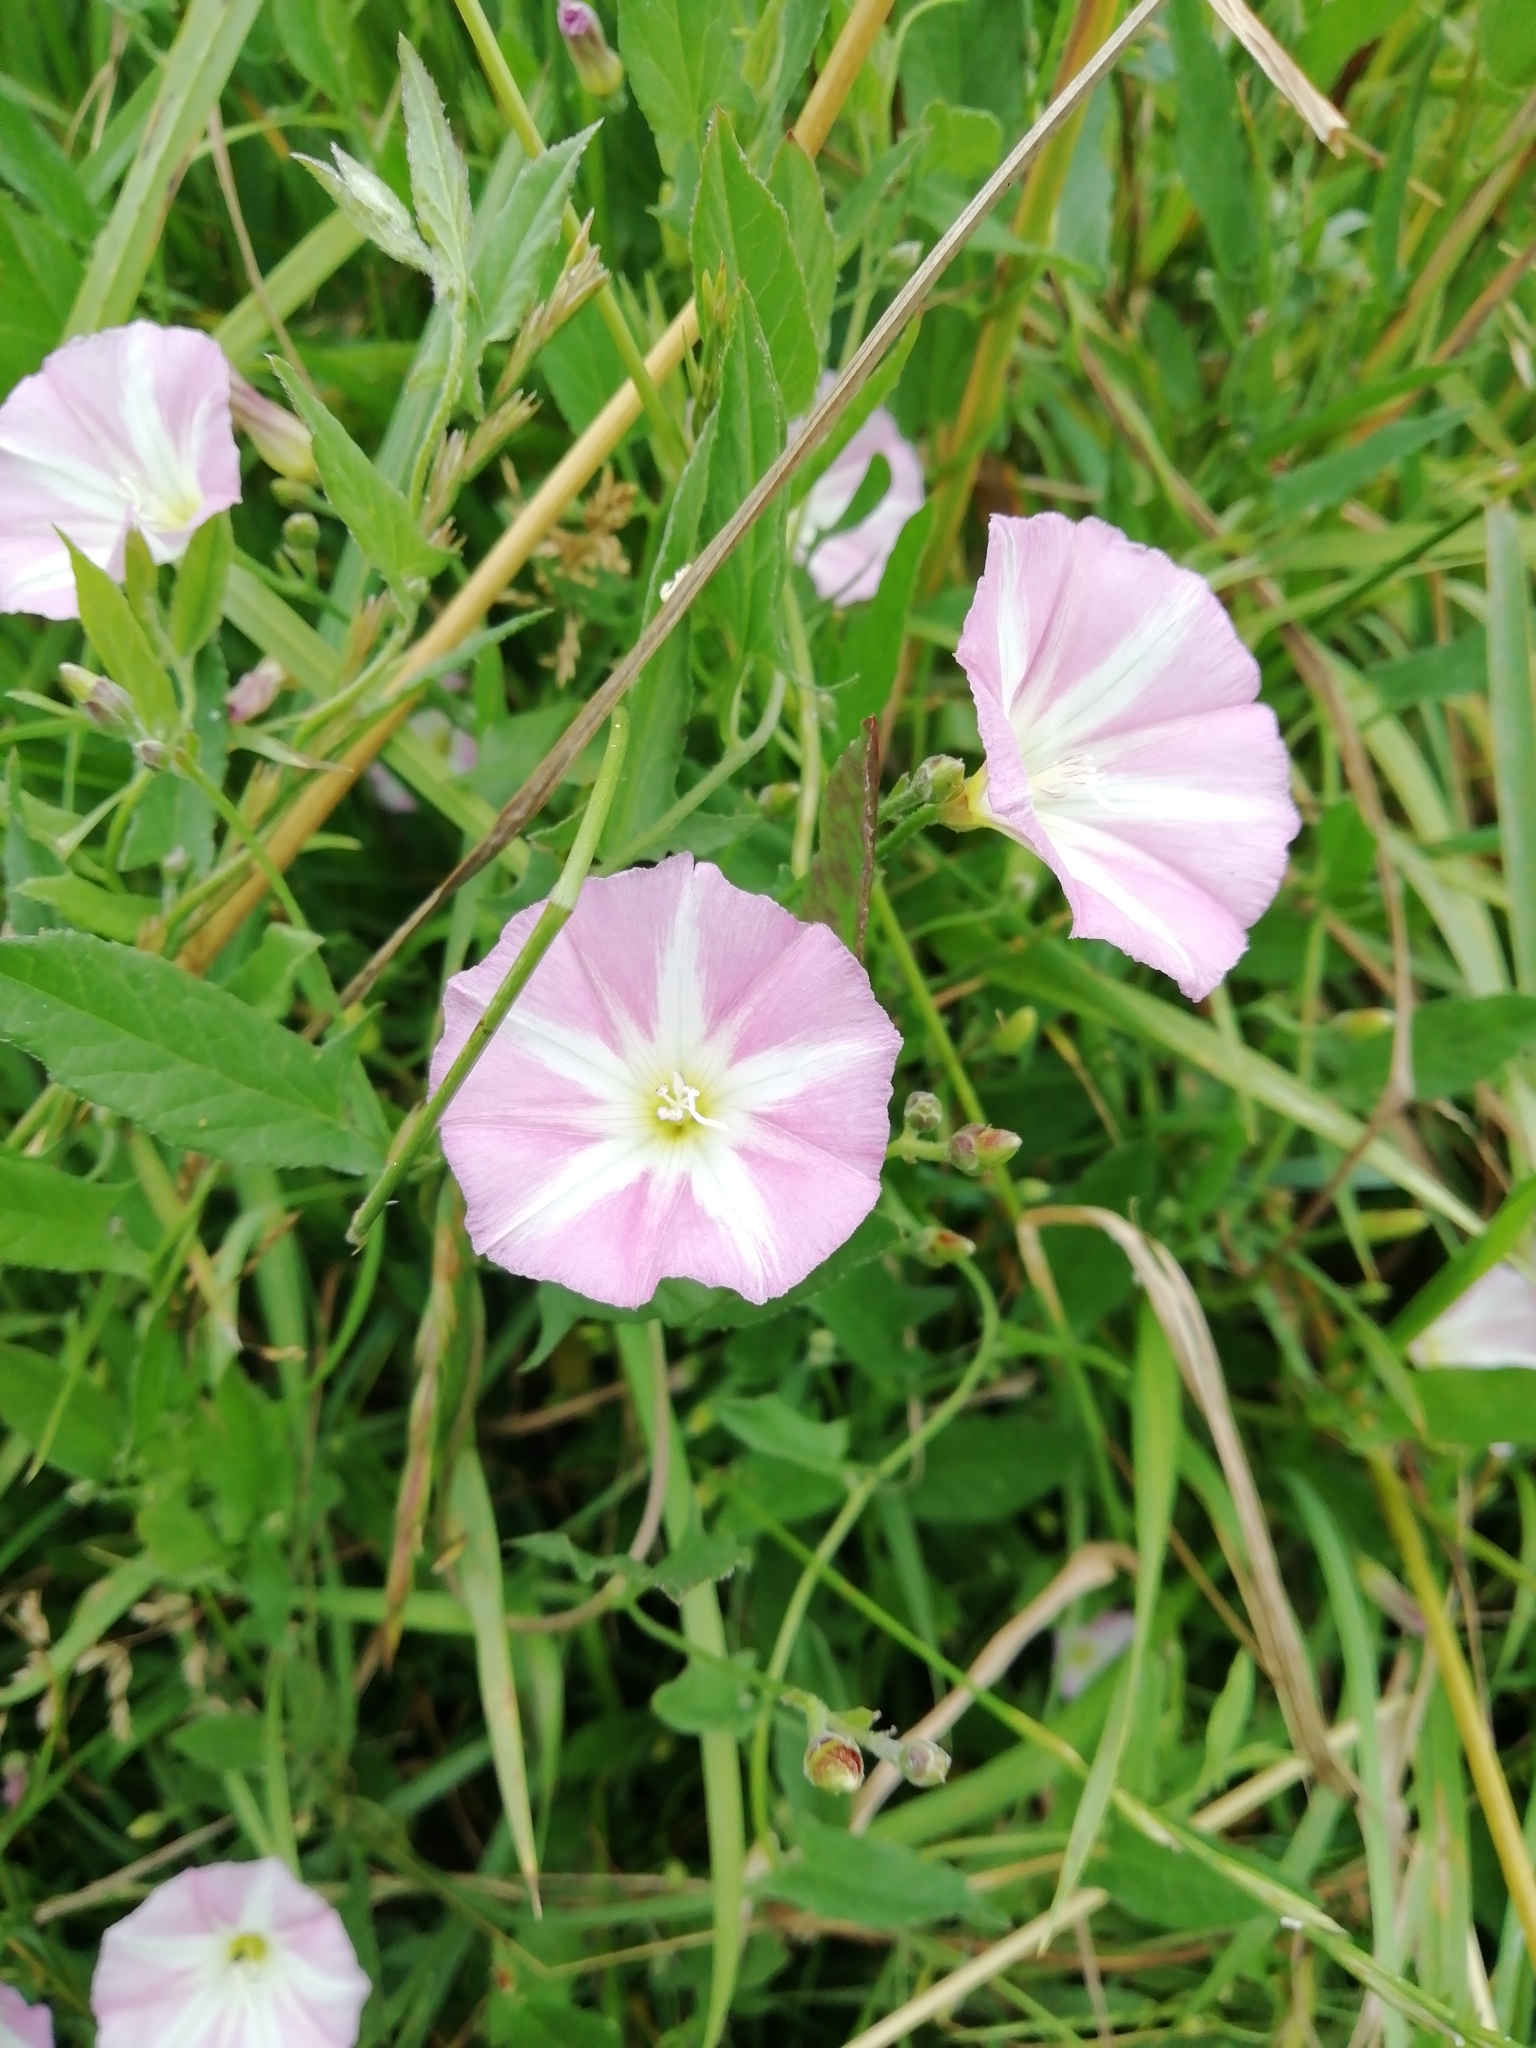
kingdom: Plantae
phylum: Tracheophyta
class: Magnoliopsida
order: Solanales
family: Convolvulaceae
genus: Convolvulus
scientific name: Convolvulus arvensis
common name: Field bindweed
